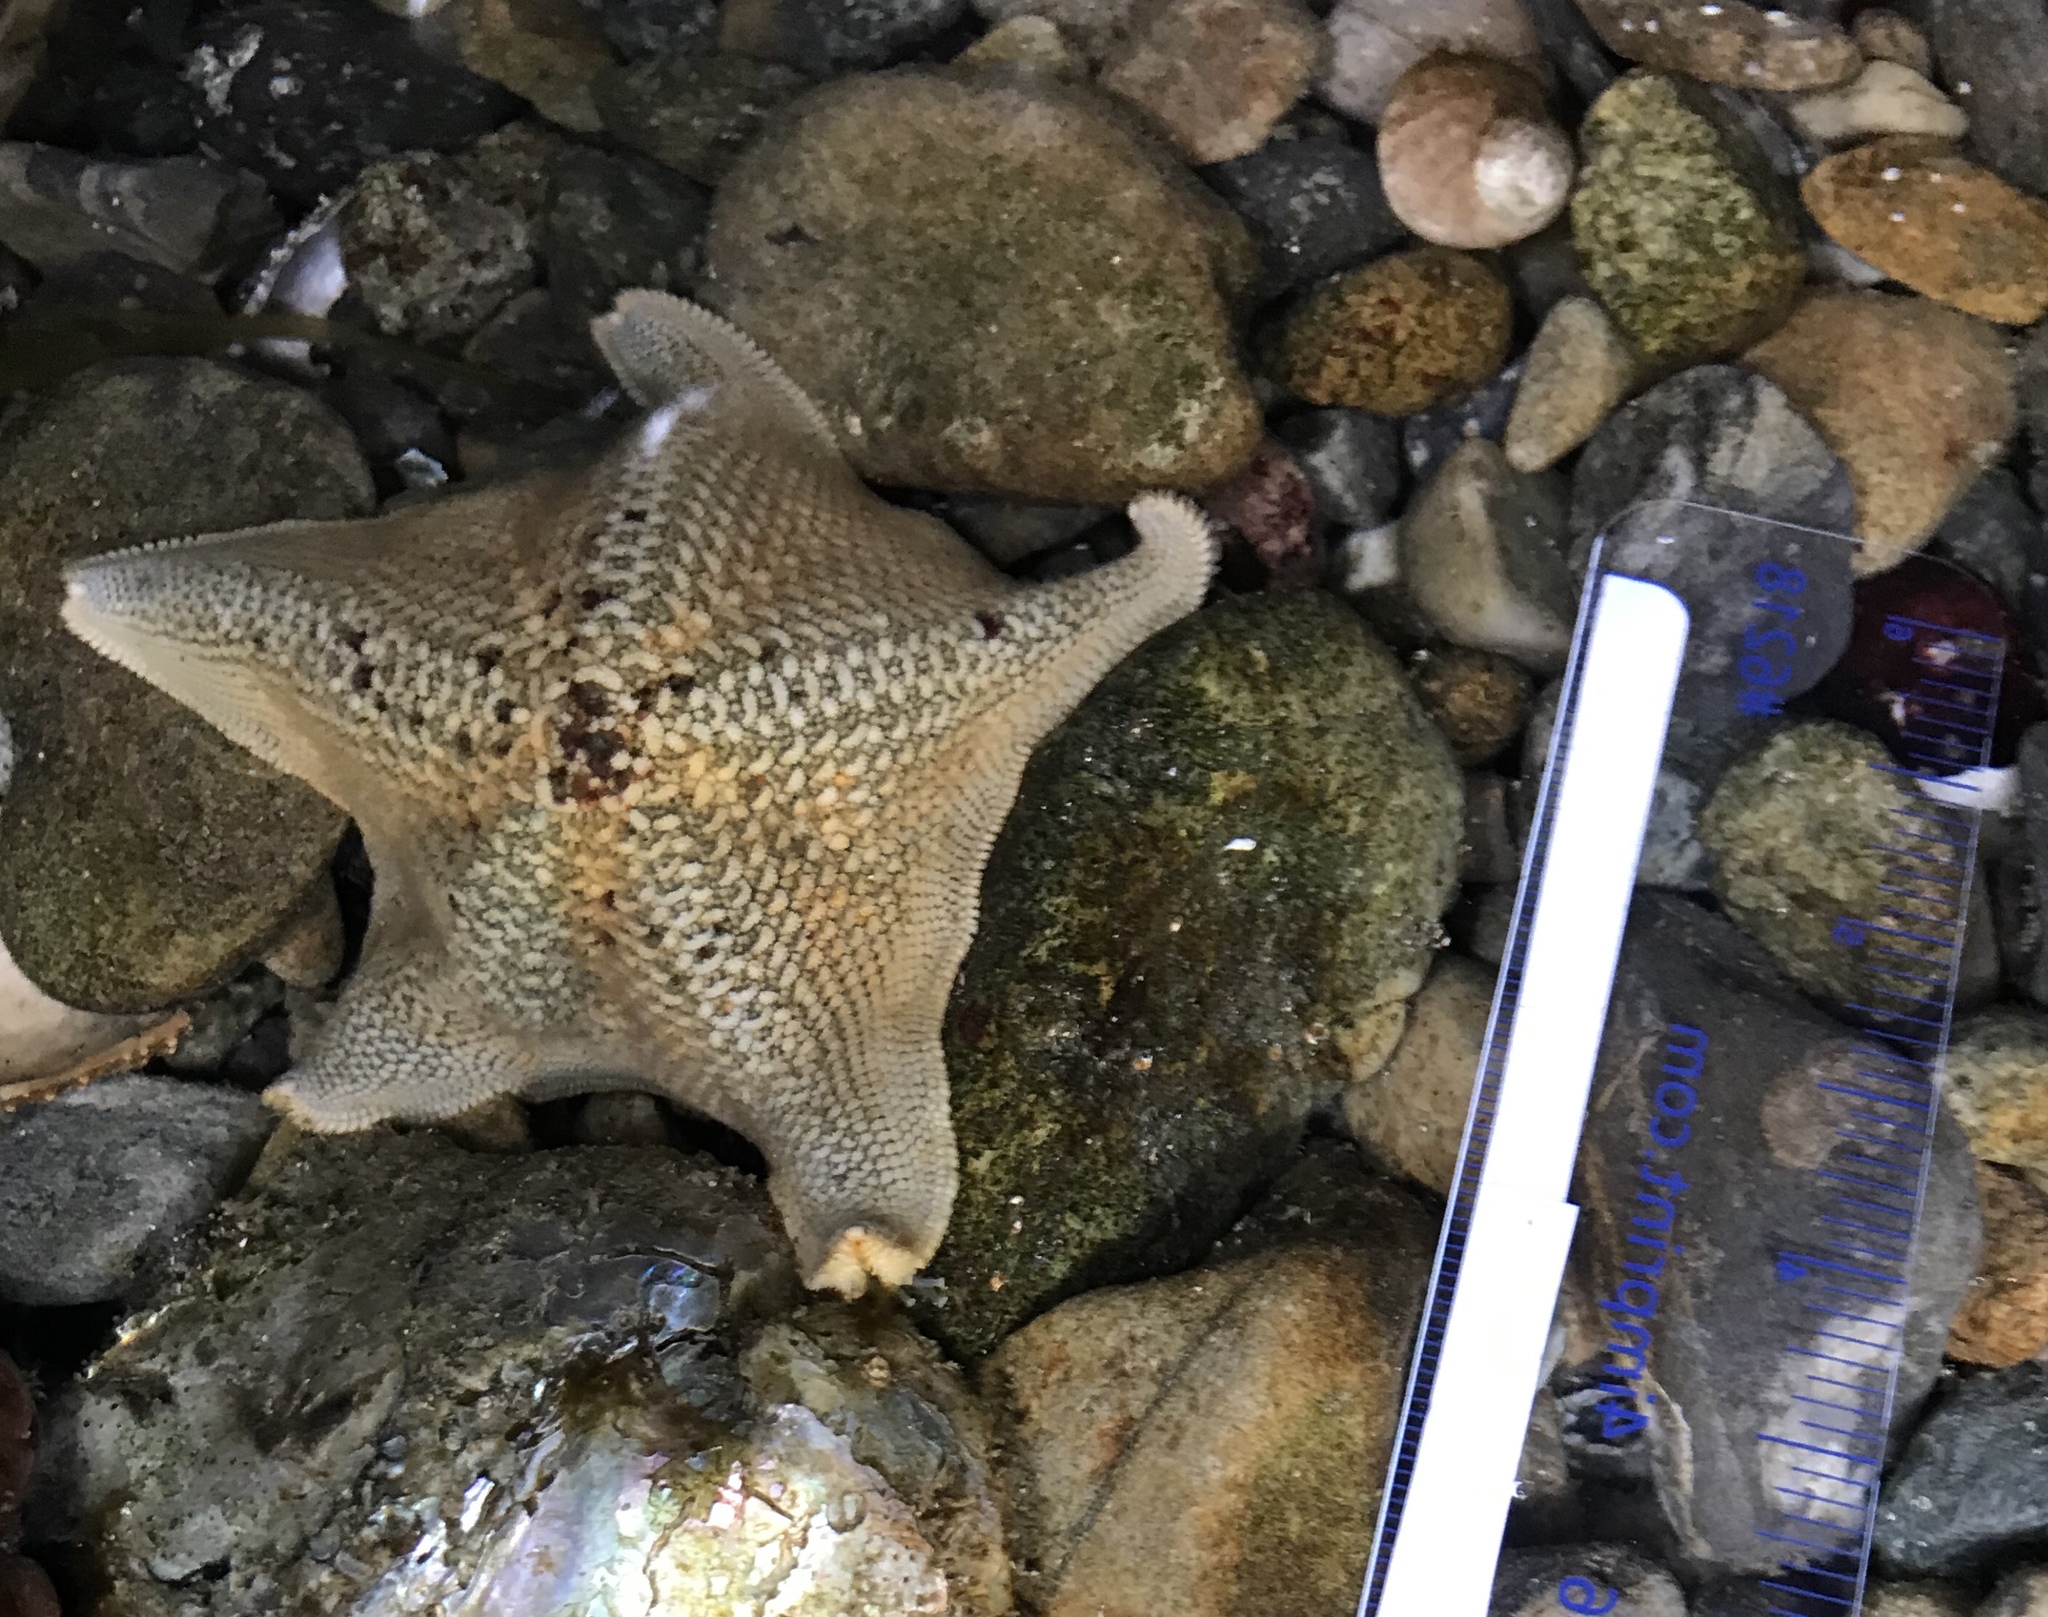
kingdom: Animalia
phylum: Echinodermata
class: Asteroidea
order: Valvatida
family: Asterinidae
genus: Patiria
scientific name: Patiria miniata
